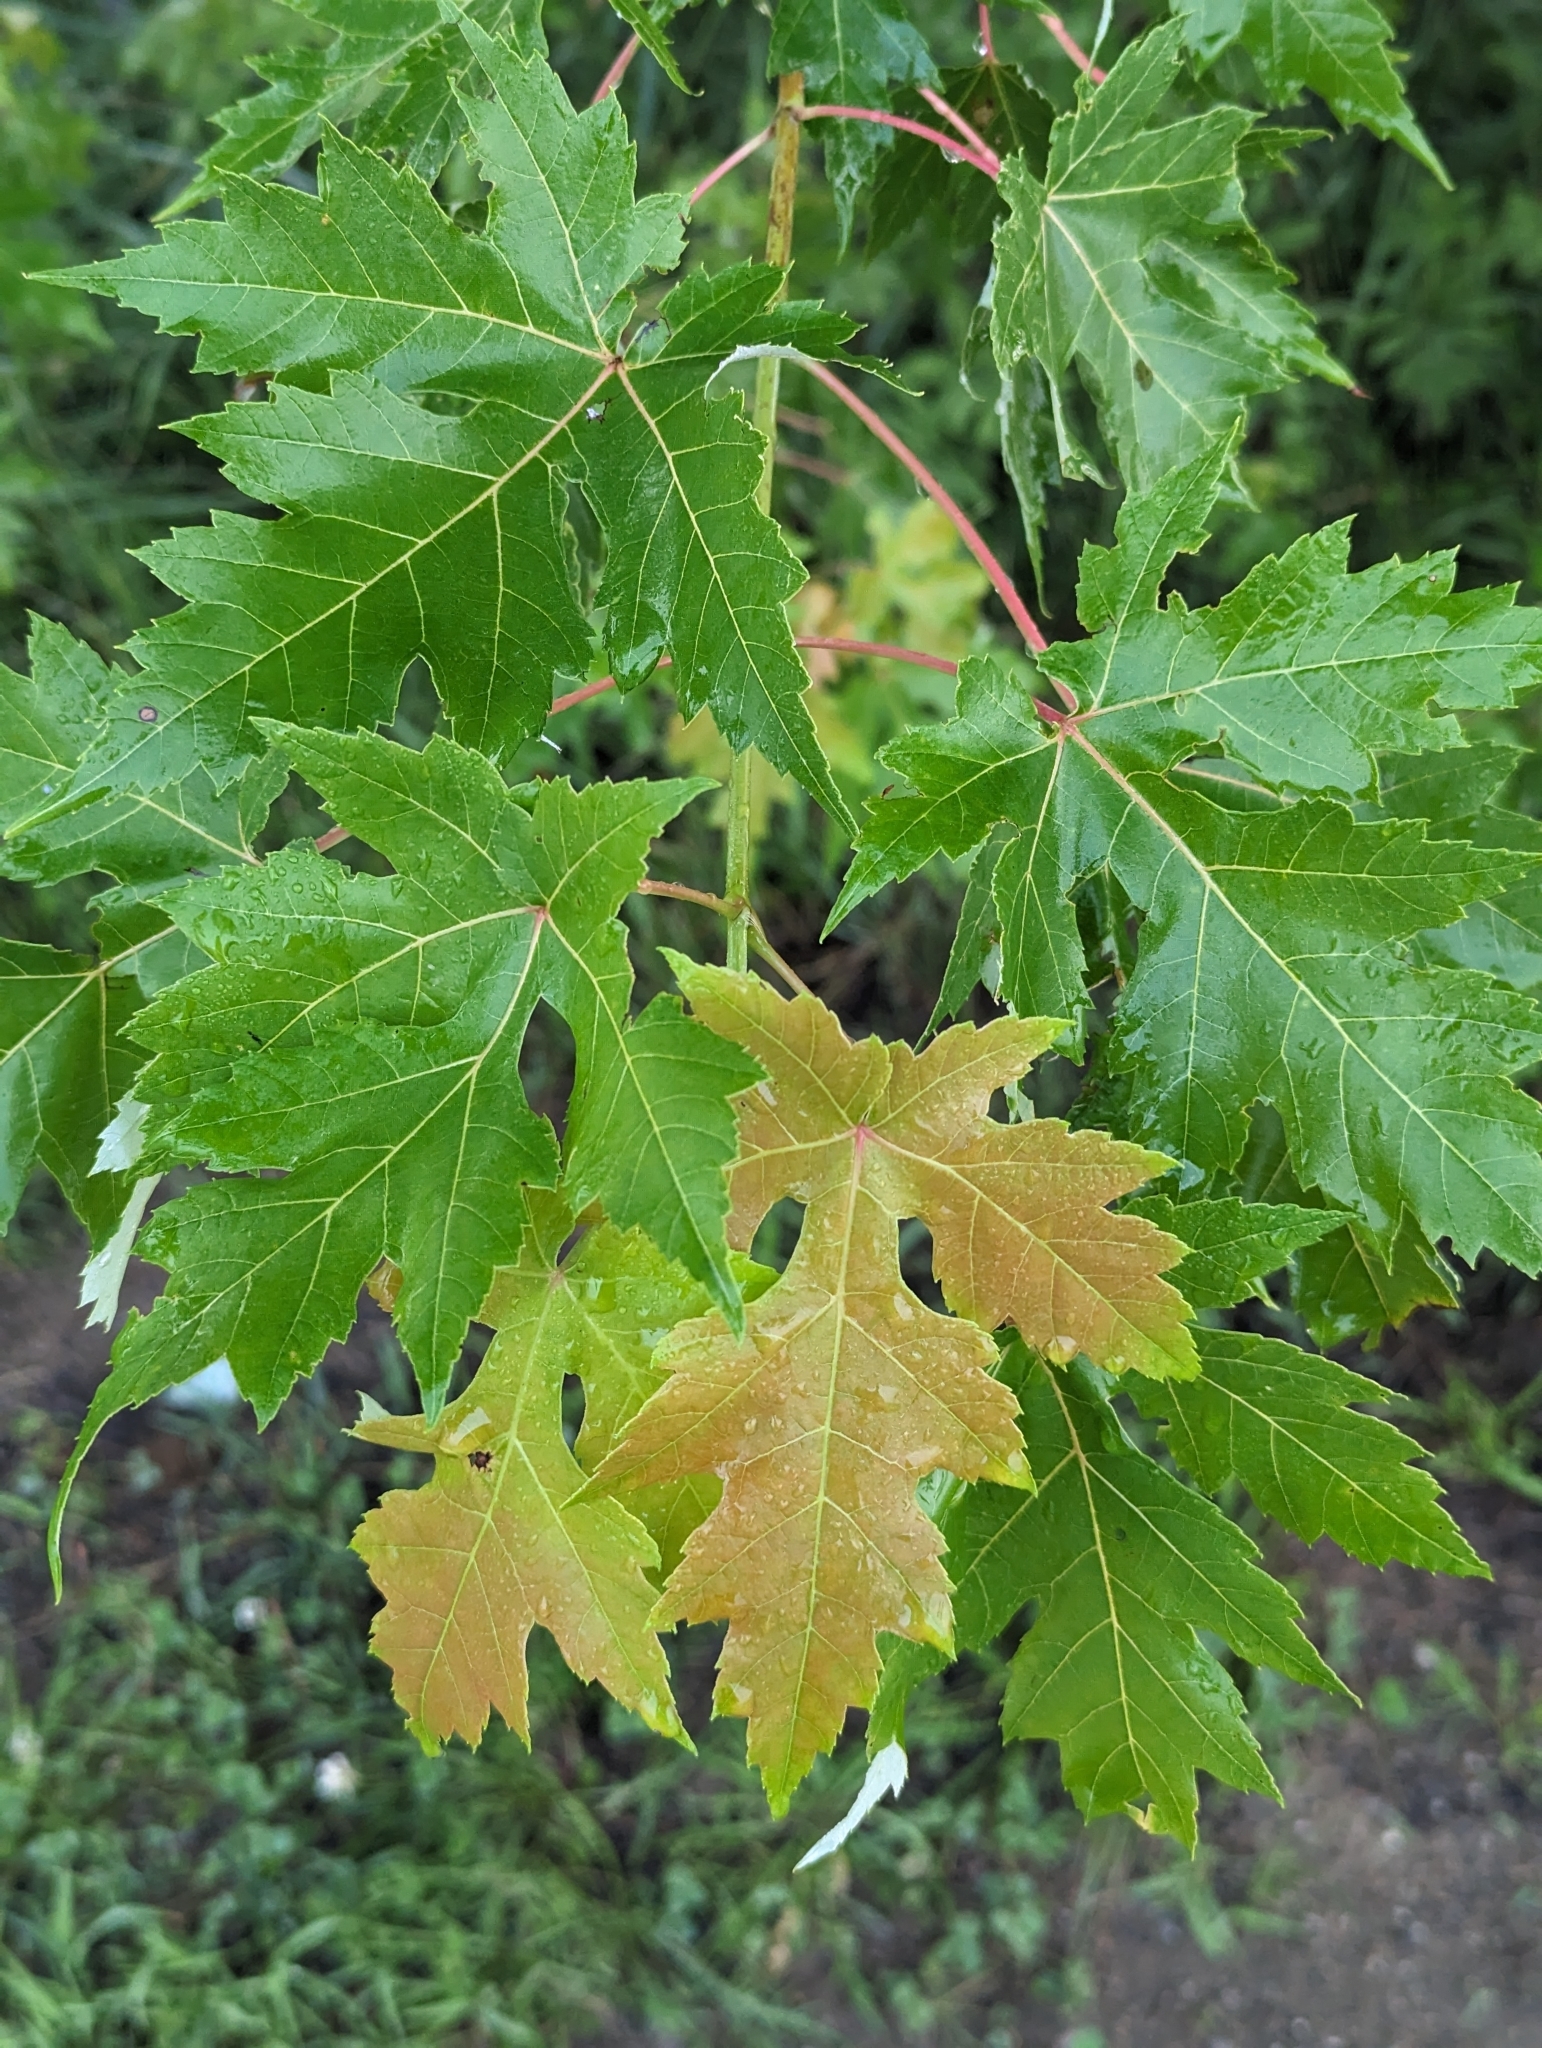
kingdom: Plantae
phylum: Tracheophyta
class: Magnoliopsida
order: Sapindales
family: Sapindaceae
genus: Acer
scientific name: Acer saccharinum
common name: Silver maple
